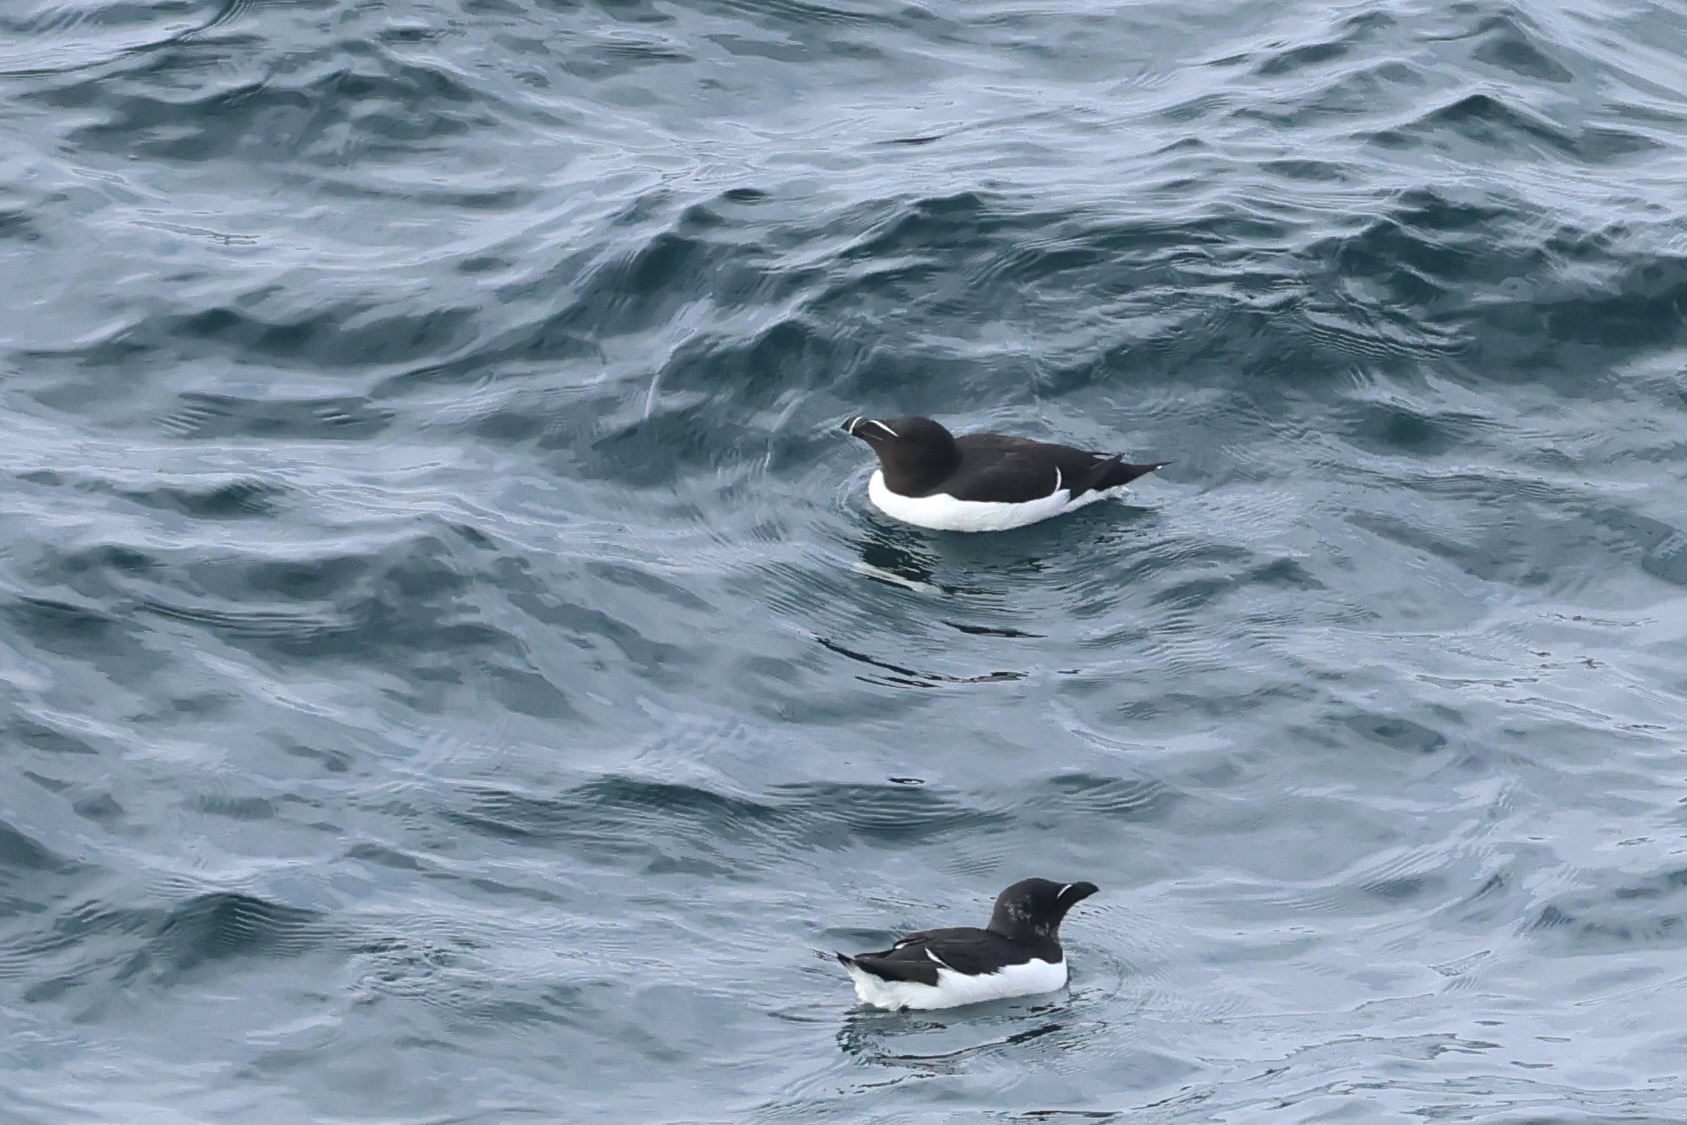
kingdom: Animalia
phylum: Chordata
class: Aves
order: Charadriiformes
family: Alcidae
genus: Alca
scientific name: Alca torda
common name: Razorbill
